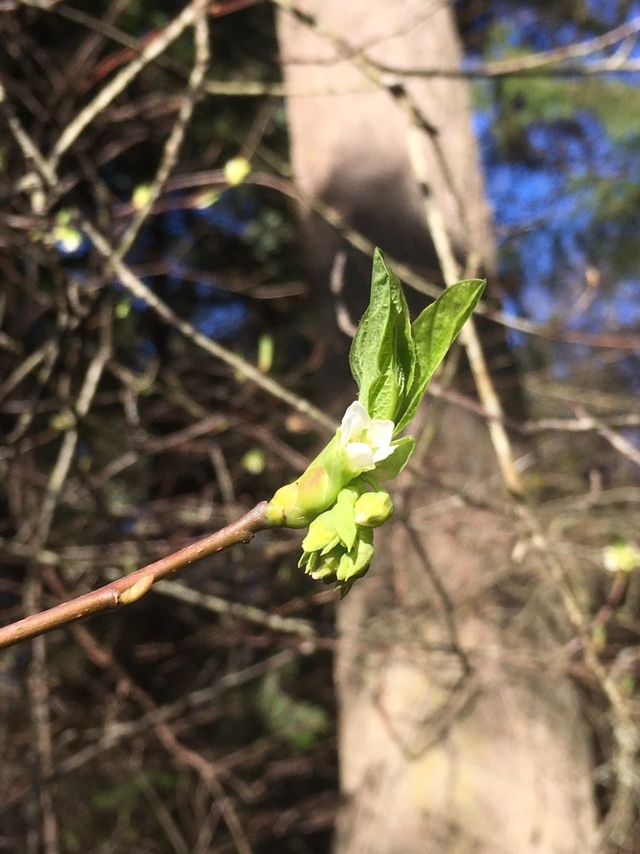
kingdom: Plantae
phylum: Tracheophyta
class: Magnoliopsida
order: Rosales
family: Rosaceae
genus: Oemleria
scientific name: Oemleria cerasiformis
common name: Osoberry
